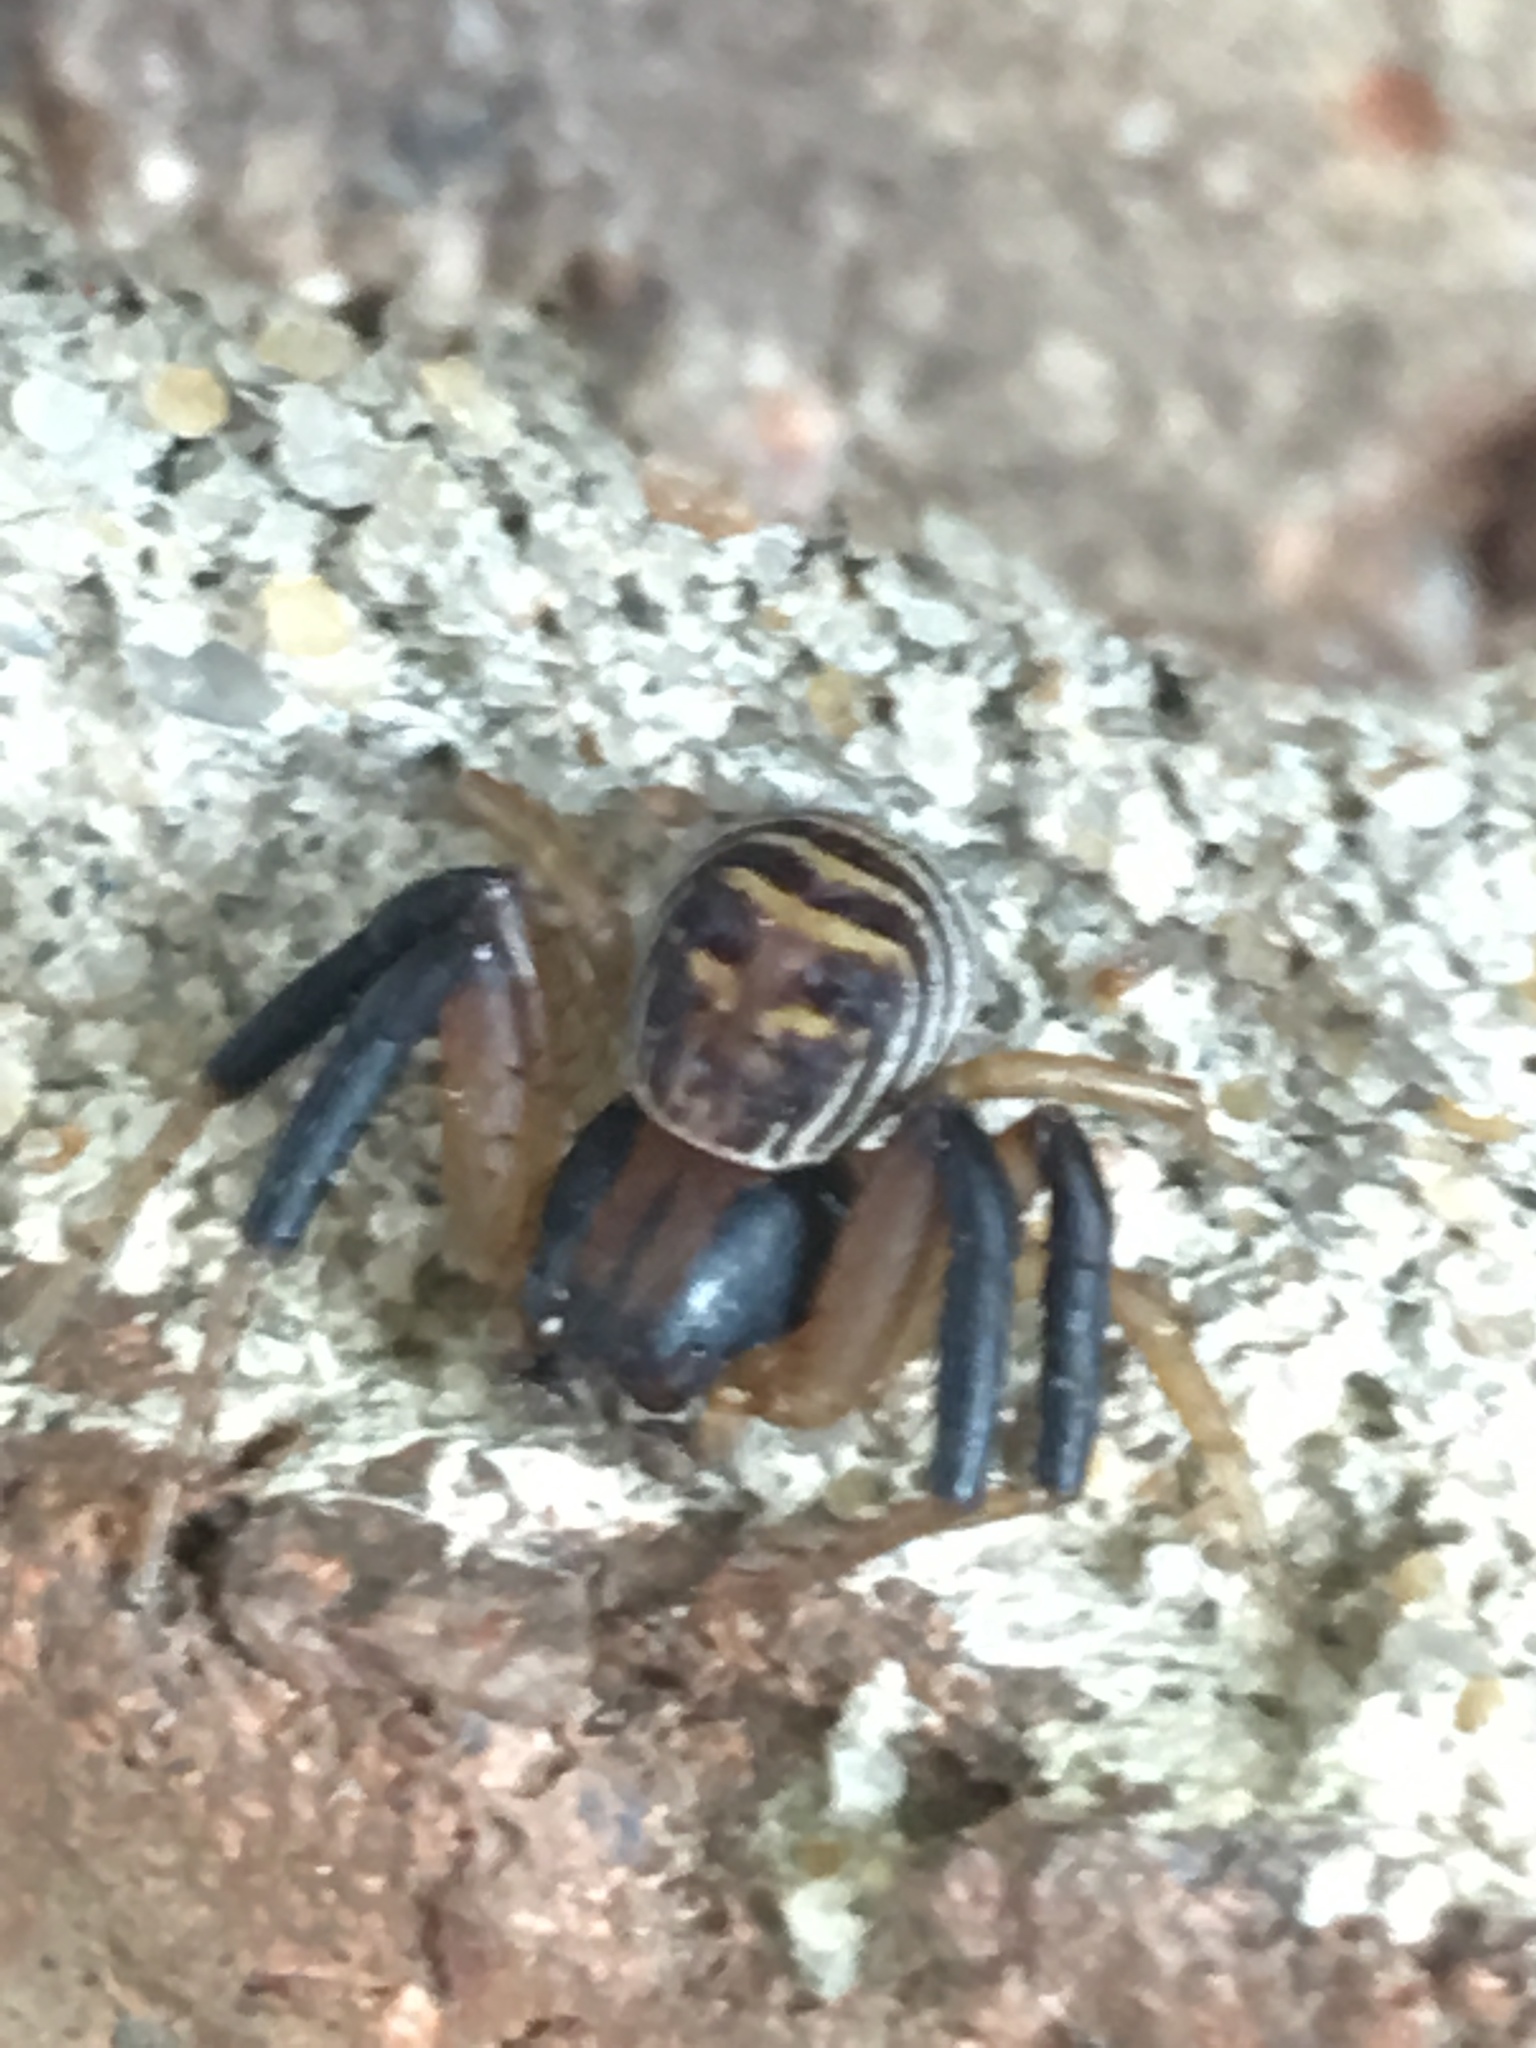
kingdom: Animalia
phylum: Arthropoda
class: Arachnida
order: Araneae
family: Thomisidae
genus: Xysticus
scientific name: Xysticus texanus
